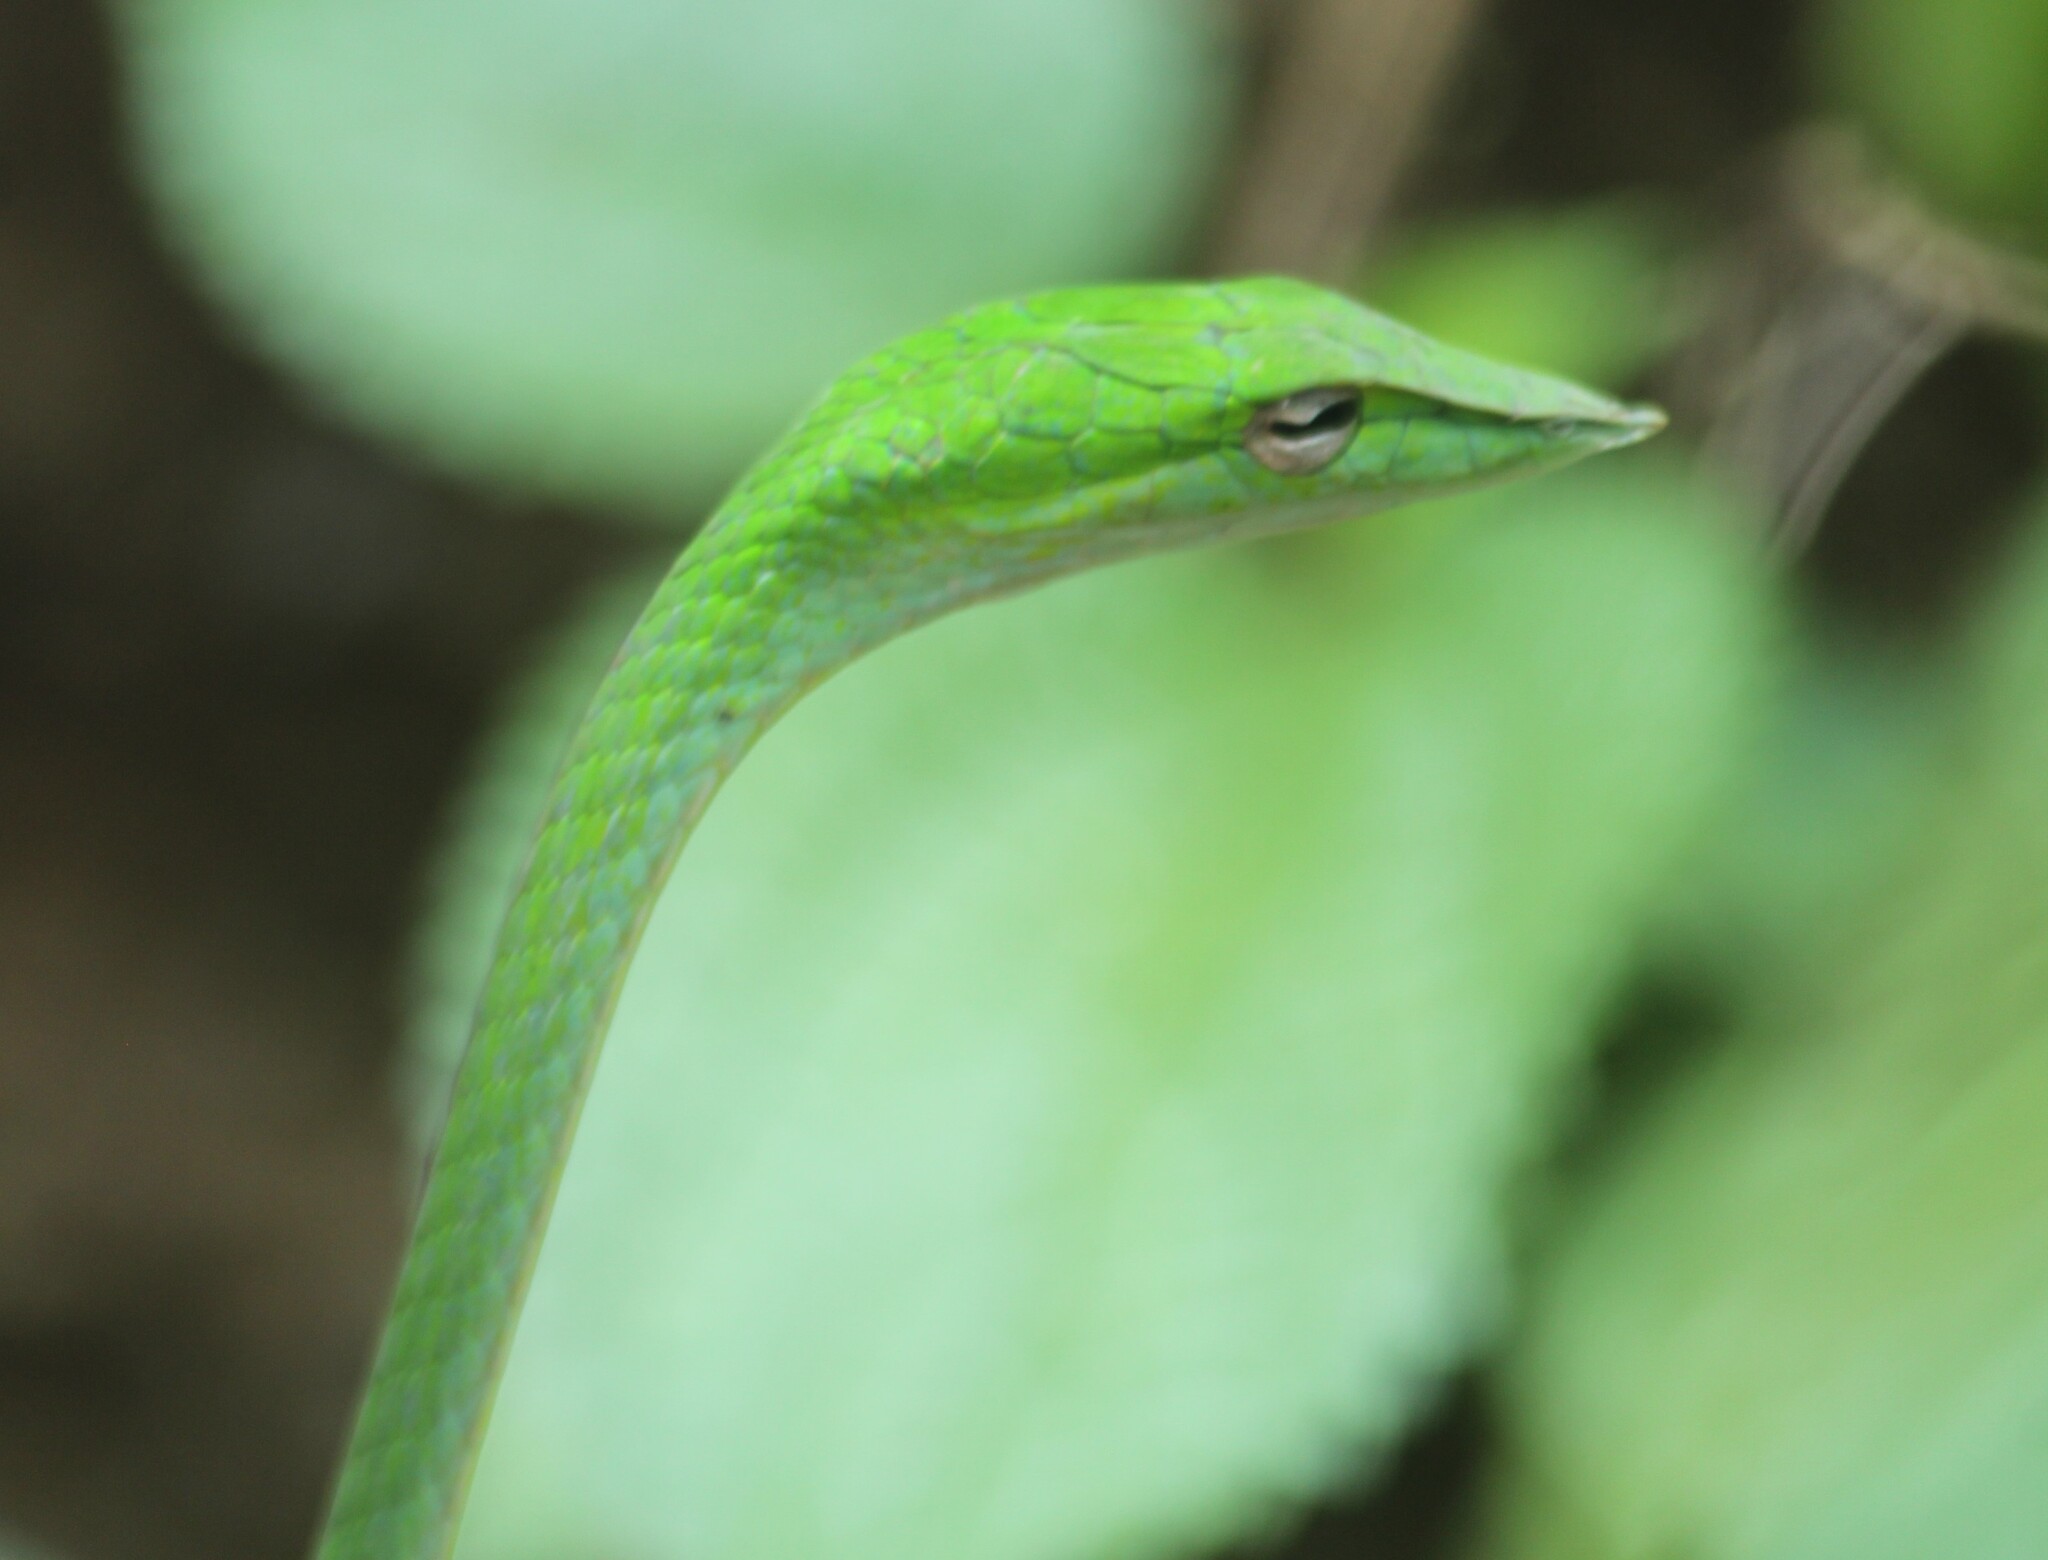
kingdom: Animalia
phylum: Chordata
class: Squamata
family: Colubridae
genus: Ahaetulla
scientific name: Ahaetulla borealis
